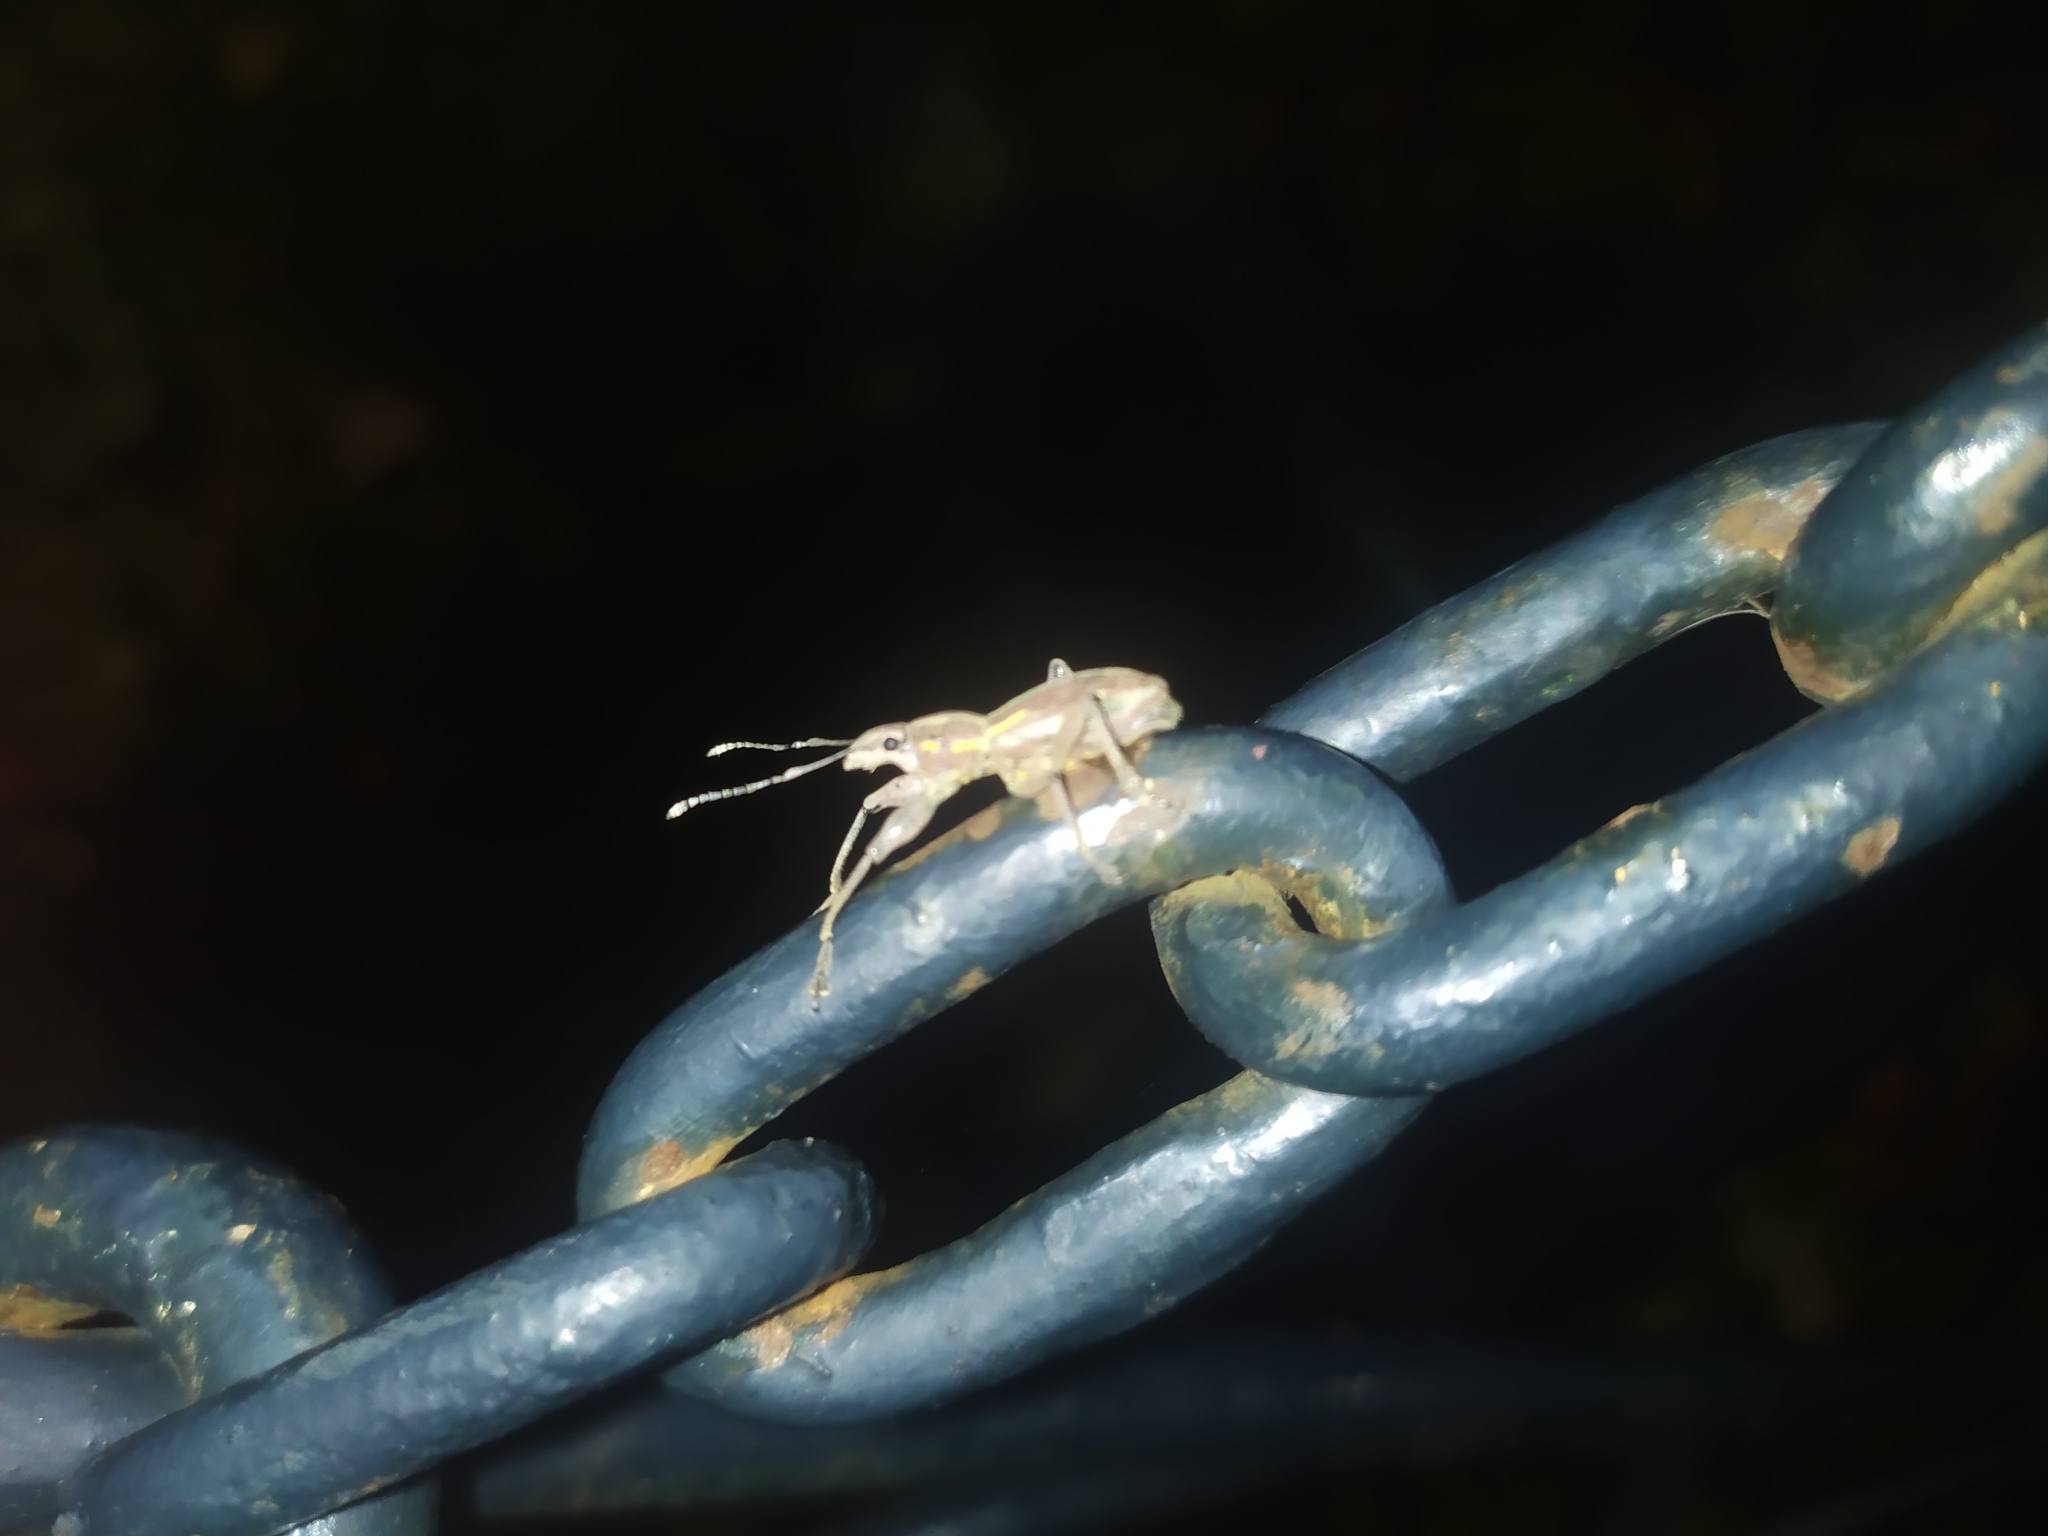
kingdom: Animalia
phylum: Arthropoda
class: Insecta
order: Coleoptera
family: Curculionidae
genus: Naupactus
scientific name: Naupactus xanthographus
